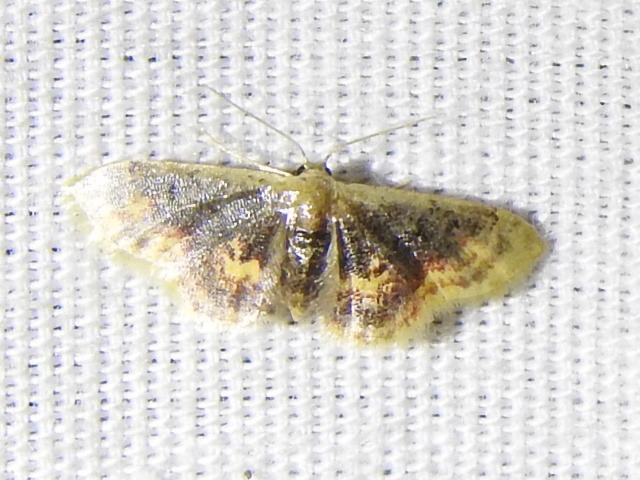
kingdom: Animalia
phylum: Arthropoda
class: Insecta
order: Lepidoptera
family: Geometridae
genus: Idaea
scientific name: Idaea scintillularia
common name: Diminutive wave
